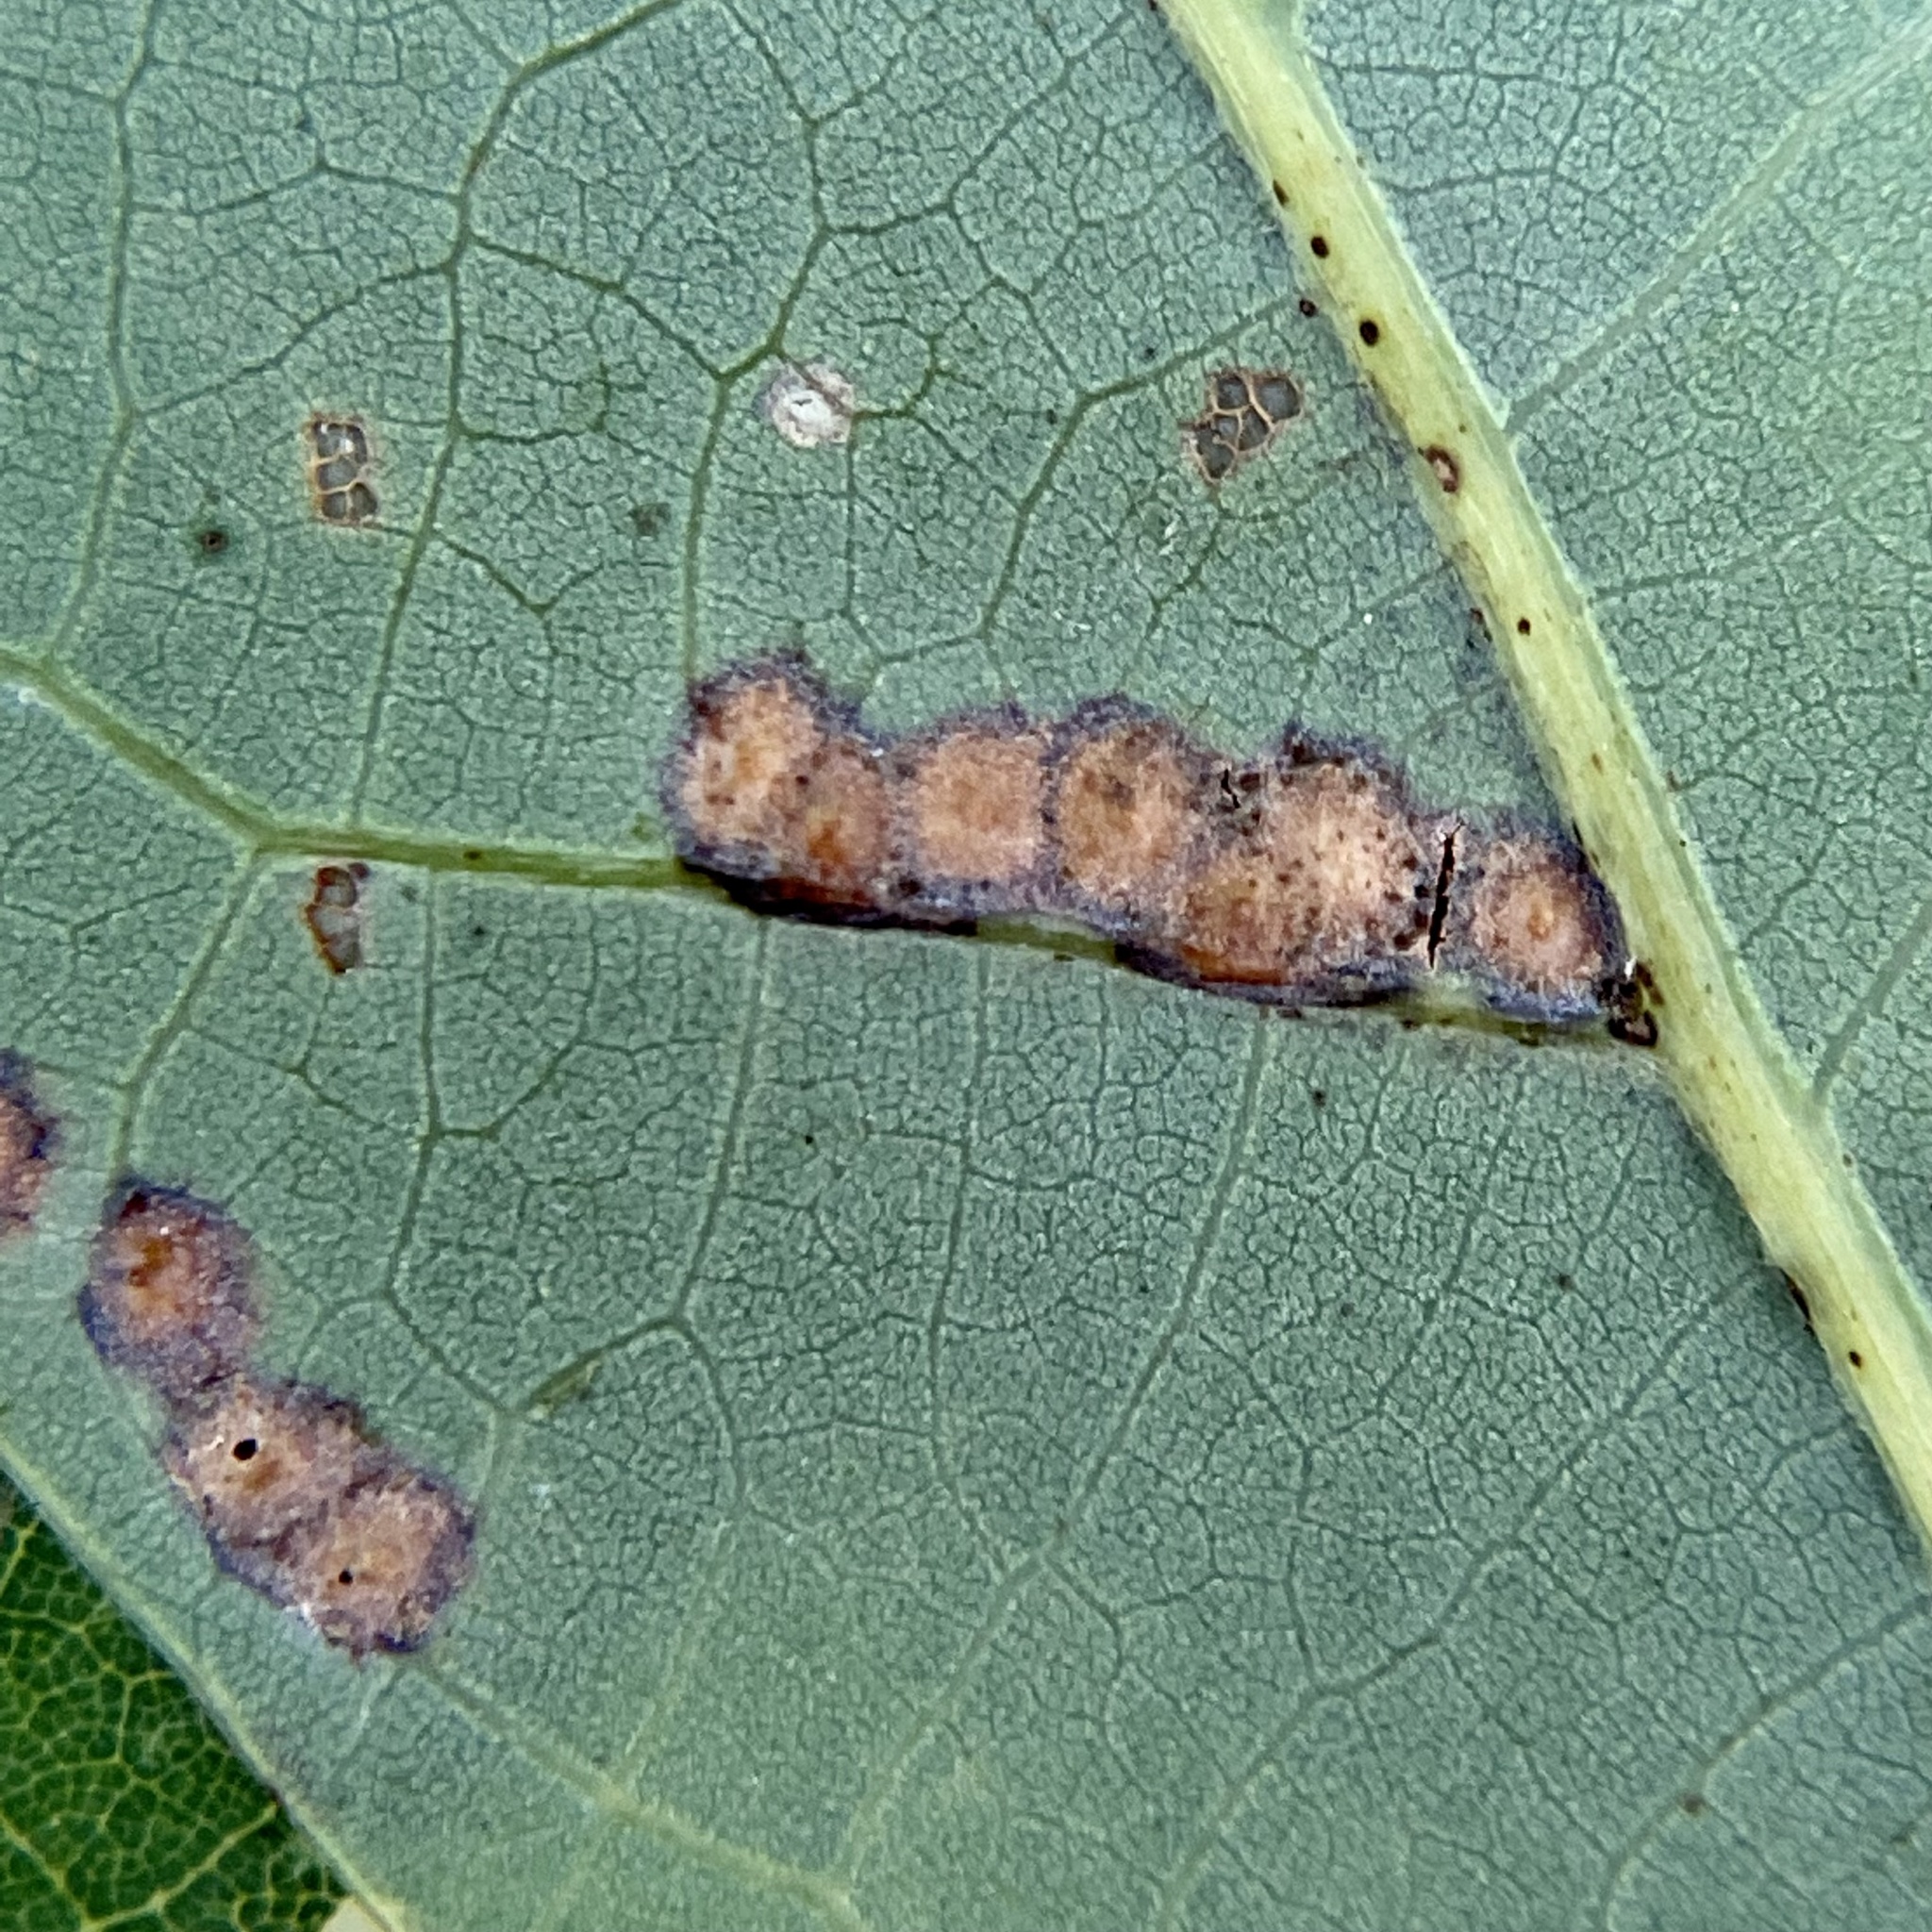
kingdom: Animalia
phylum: Arthropoda
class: Insecta
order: Hymenoptera
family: Cynipidae
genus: Neuroterus
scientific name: Neuroterus niger
